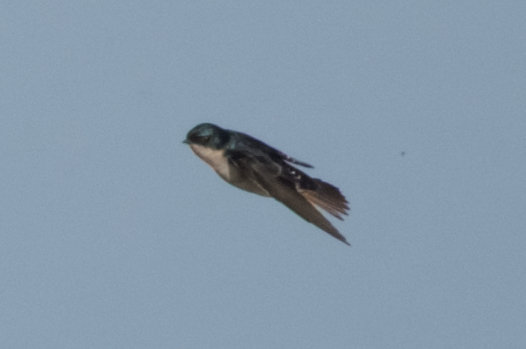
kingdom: Animalia
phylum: Chordata
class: Aves
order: Passeriformes
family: Hirundinidae
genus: Tachycineta
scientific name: Tachycineta bicolor
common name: Tree swallow
